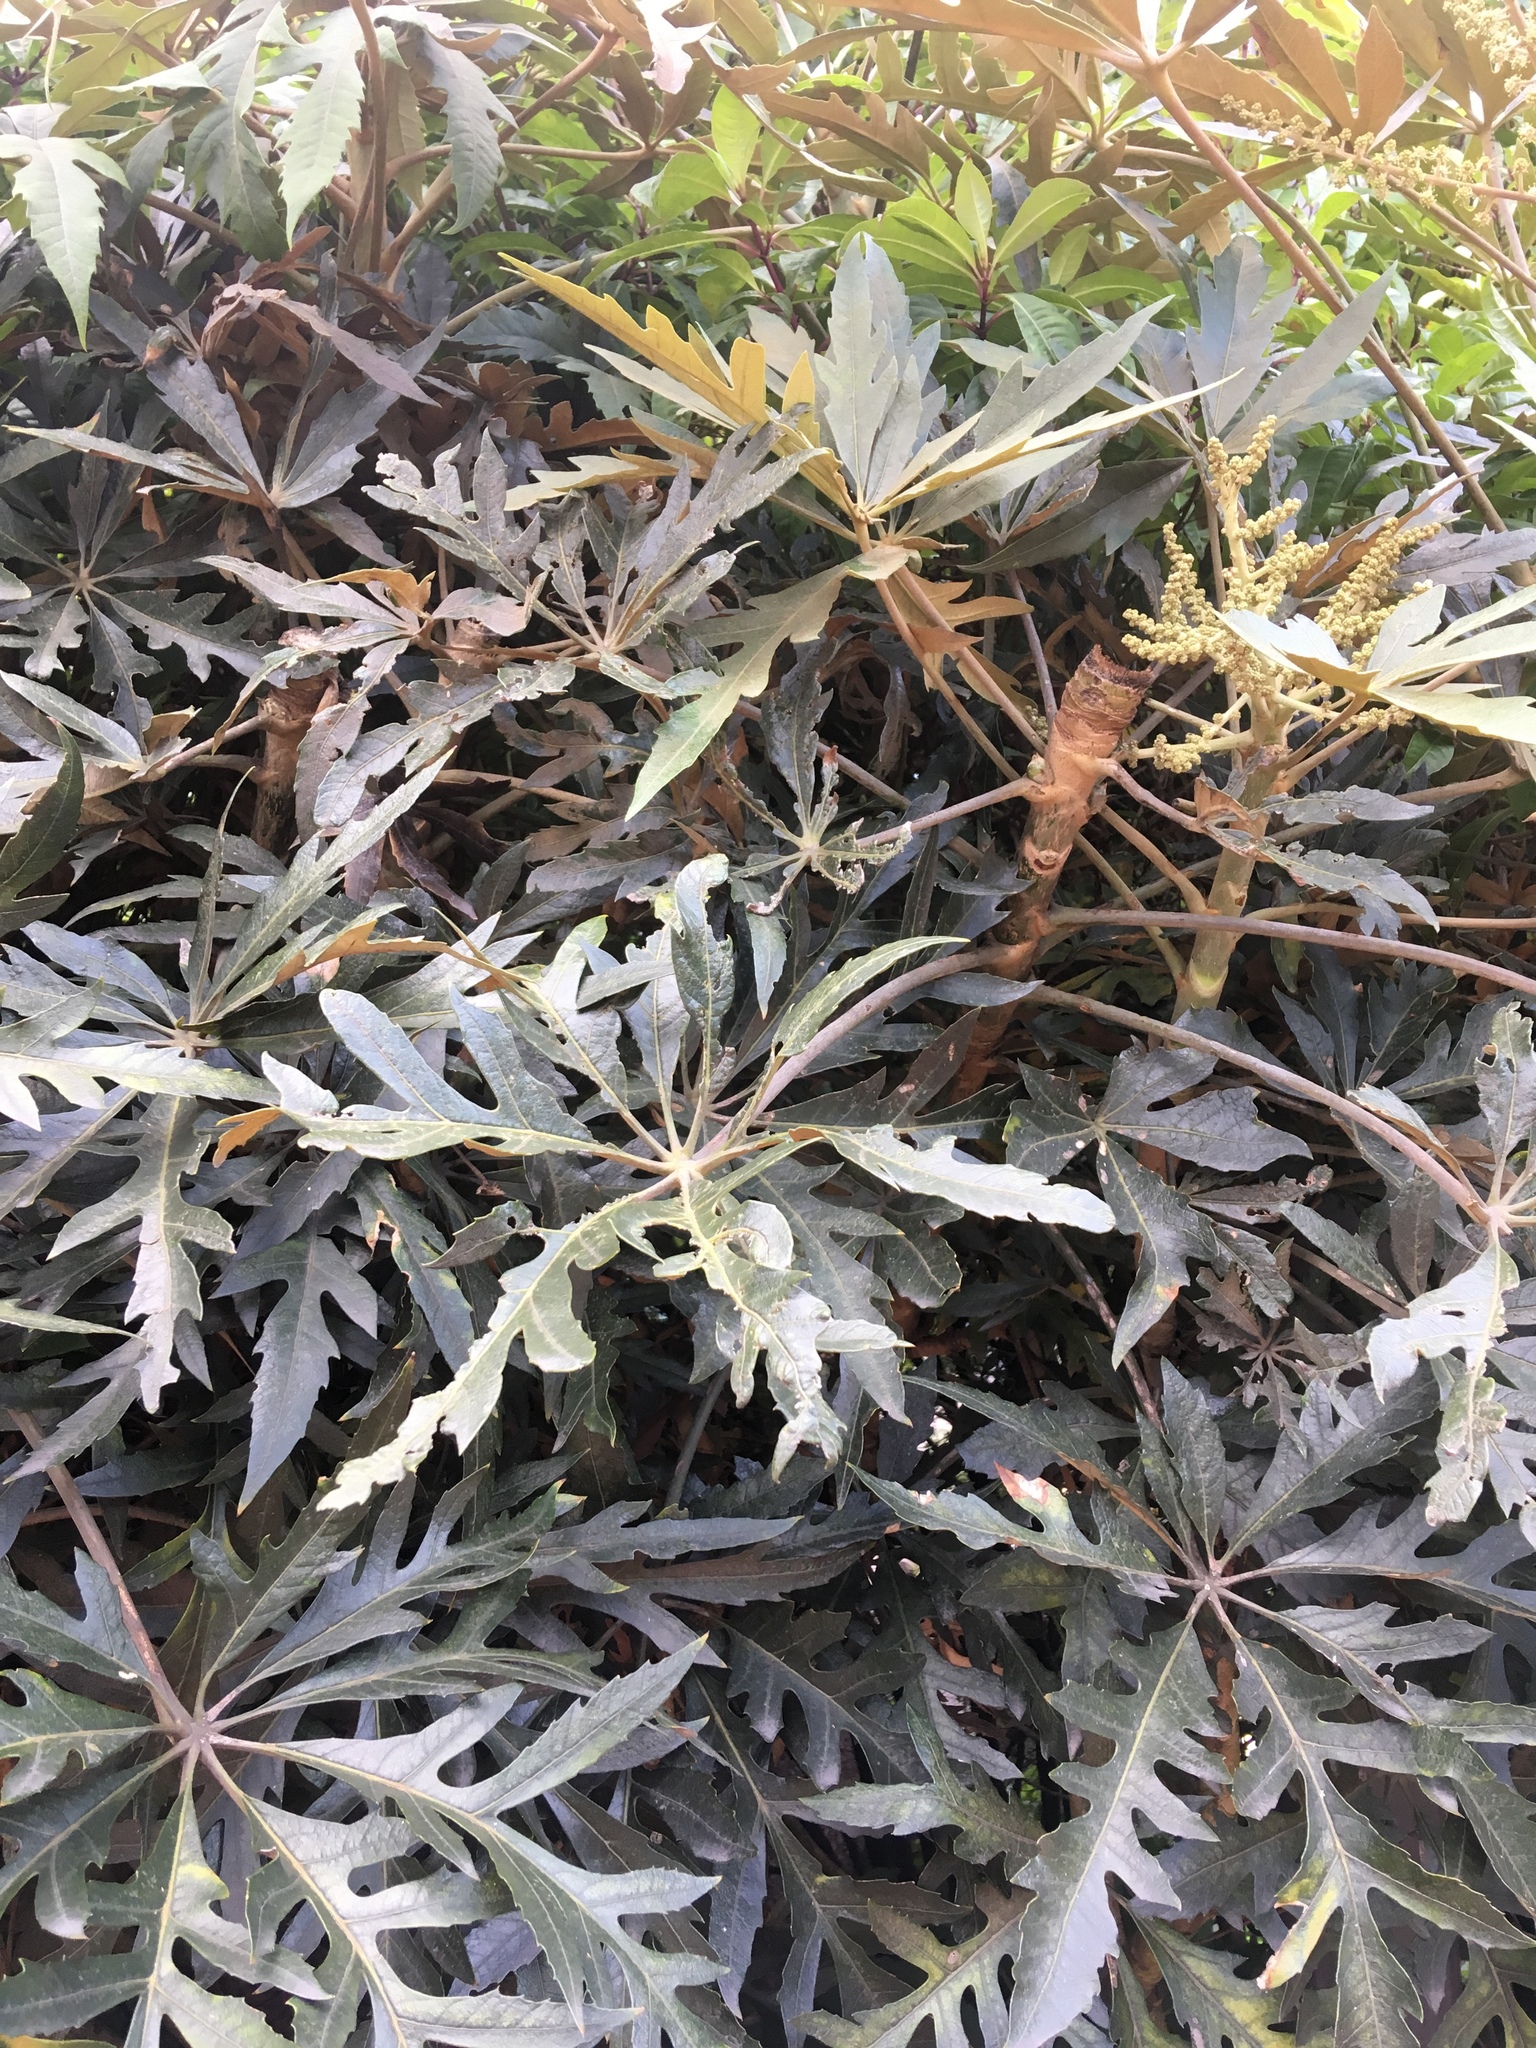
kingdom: Plantae
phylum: Tracheophyta
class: Magnoliopsida
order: Apiales
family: Araliaceae
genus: Oreopanax
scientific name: Oreopanax incisus
